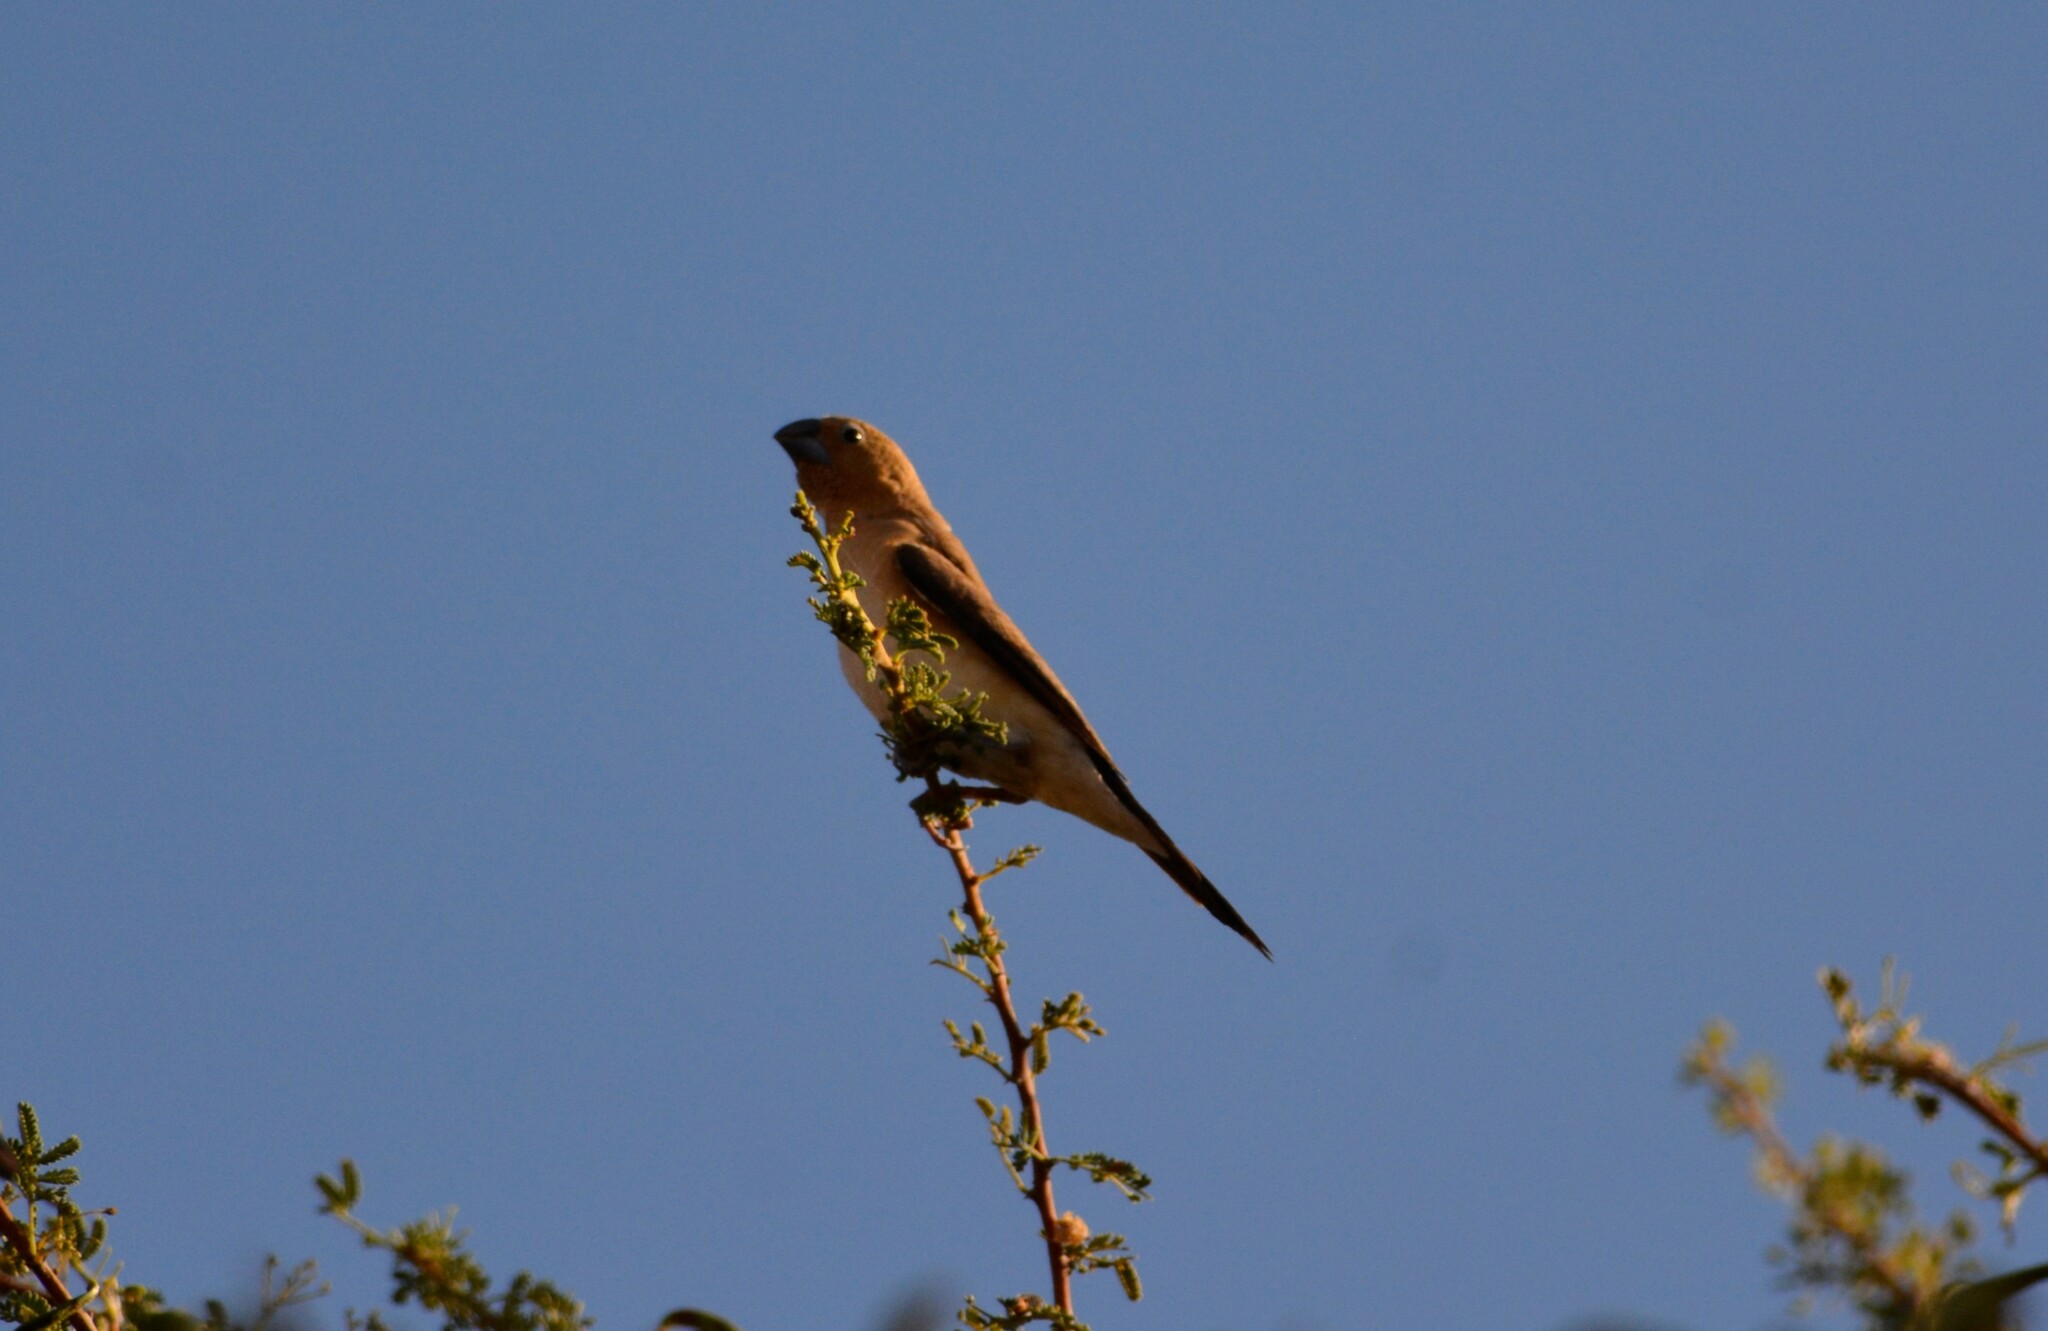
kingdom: Animalia
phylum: Chordata
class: Aves
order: Passeriformes
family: Estrildidae
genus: Euodice
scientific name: Euodice cantans
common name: African silverbill
